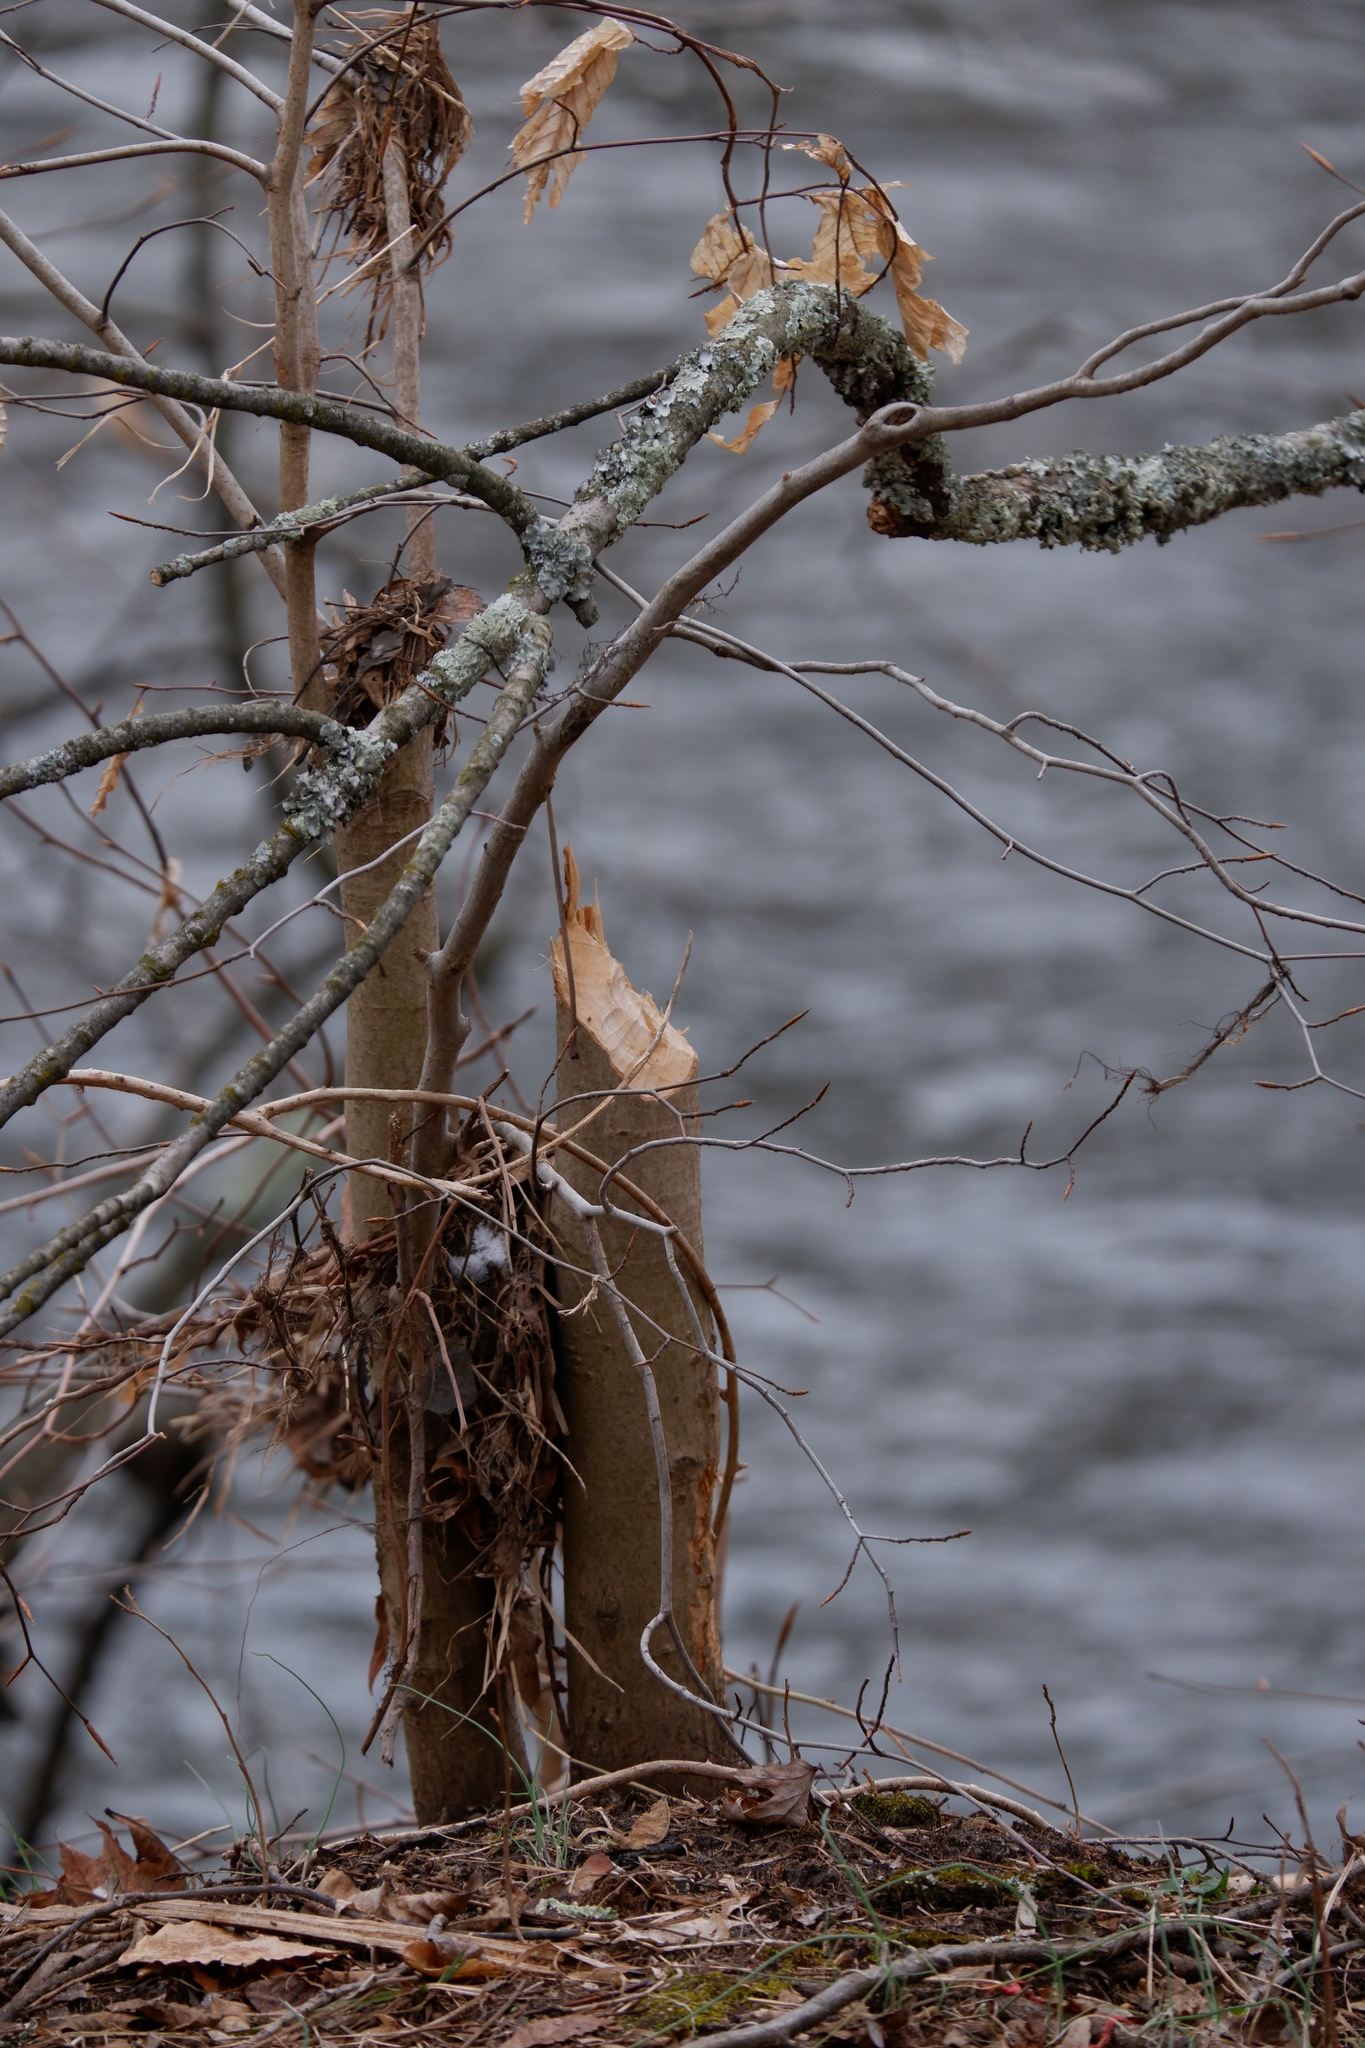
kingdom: Animalia
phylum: Chordata
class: Mammalia
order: Rodentia
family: Castoridae
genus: Castor
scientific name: Castor canadensis
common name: American beaver
